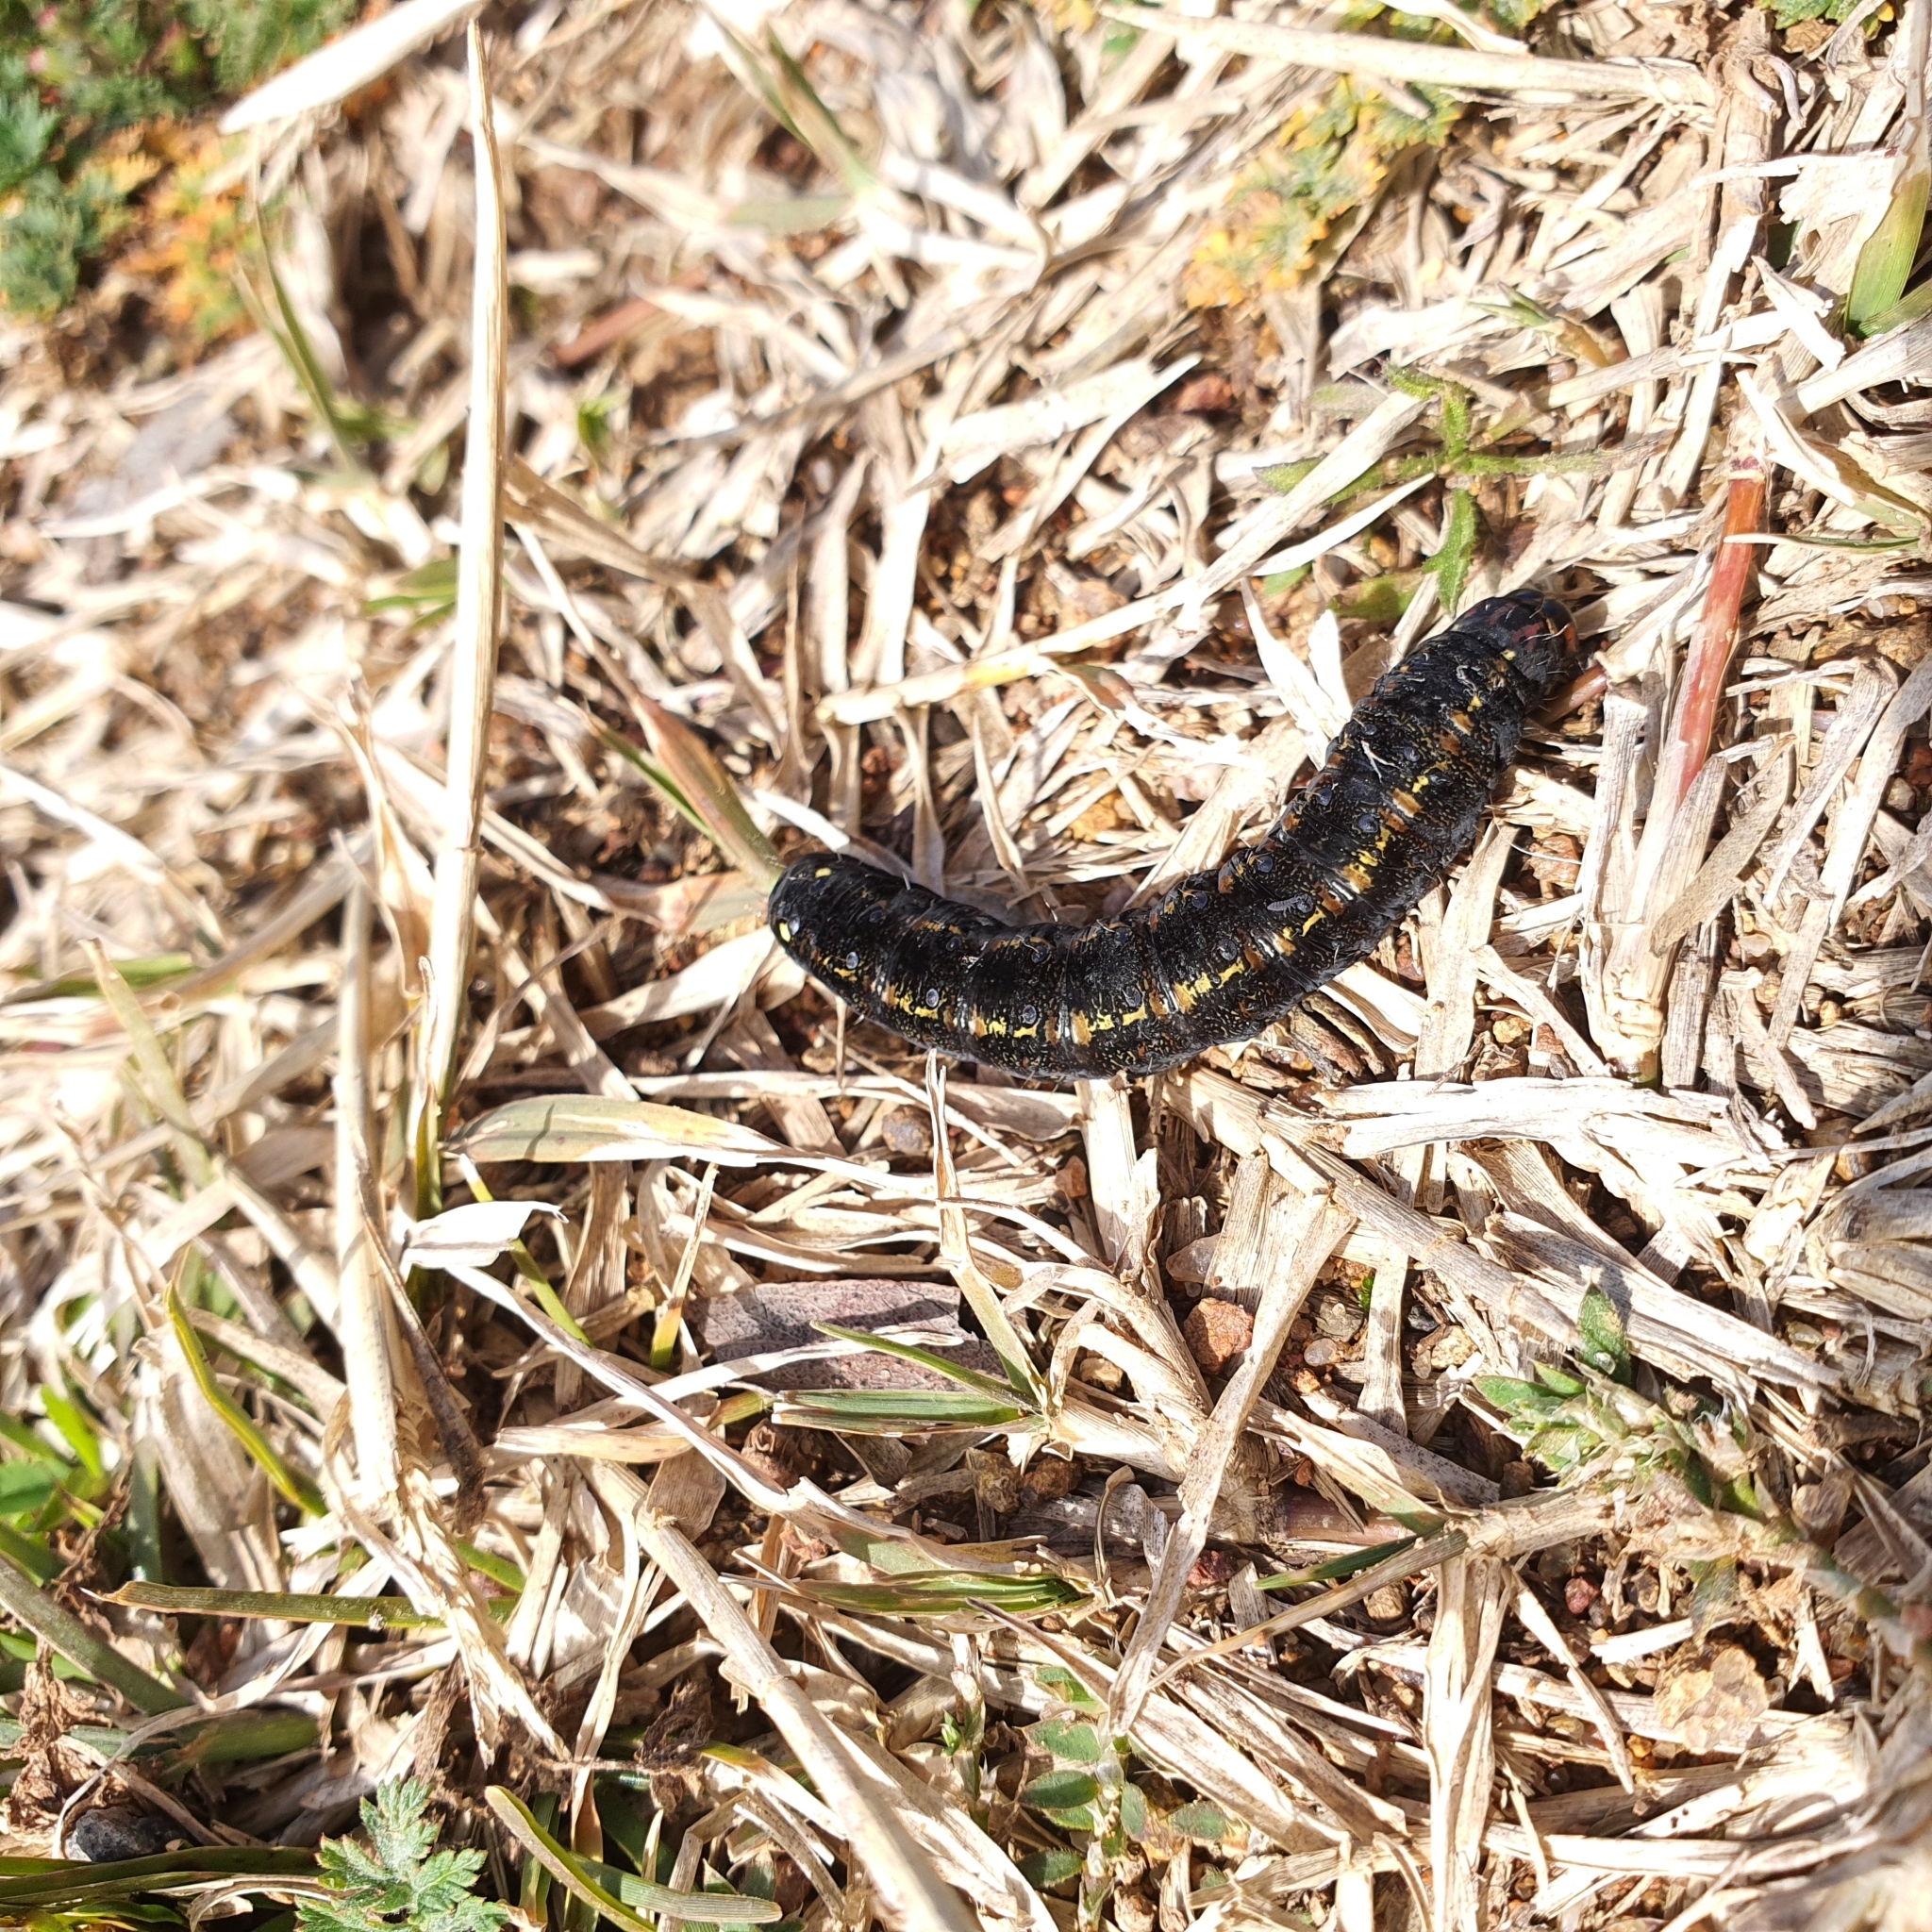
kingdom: Animalia
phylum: Arthropoda
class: Insecta
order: Lepidoptera
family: Noctuidae
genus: Apina
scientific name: Apina callisto
